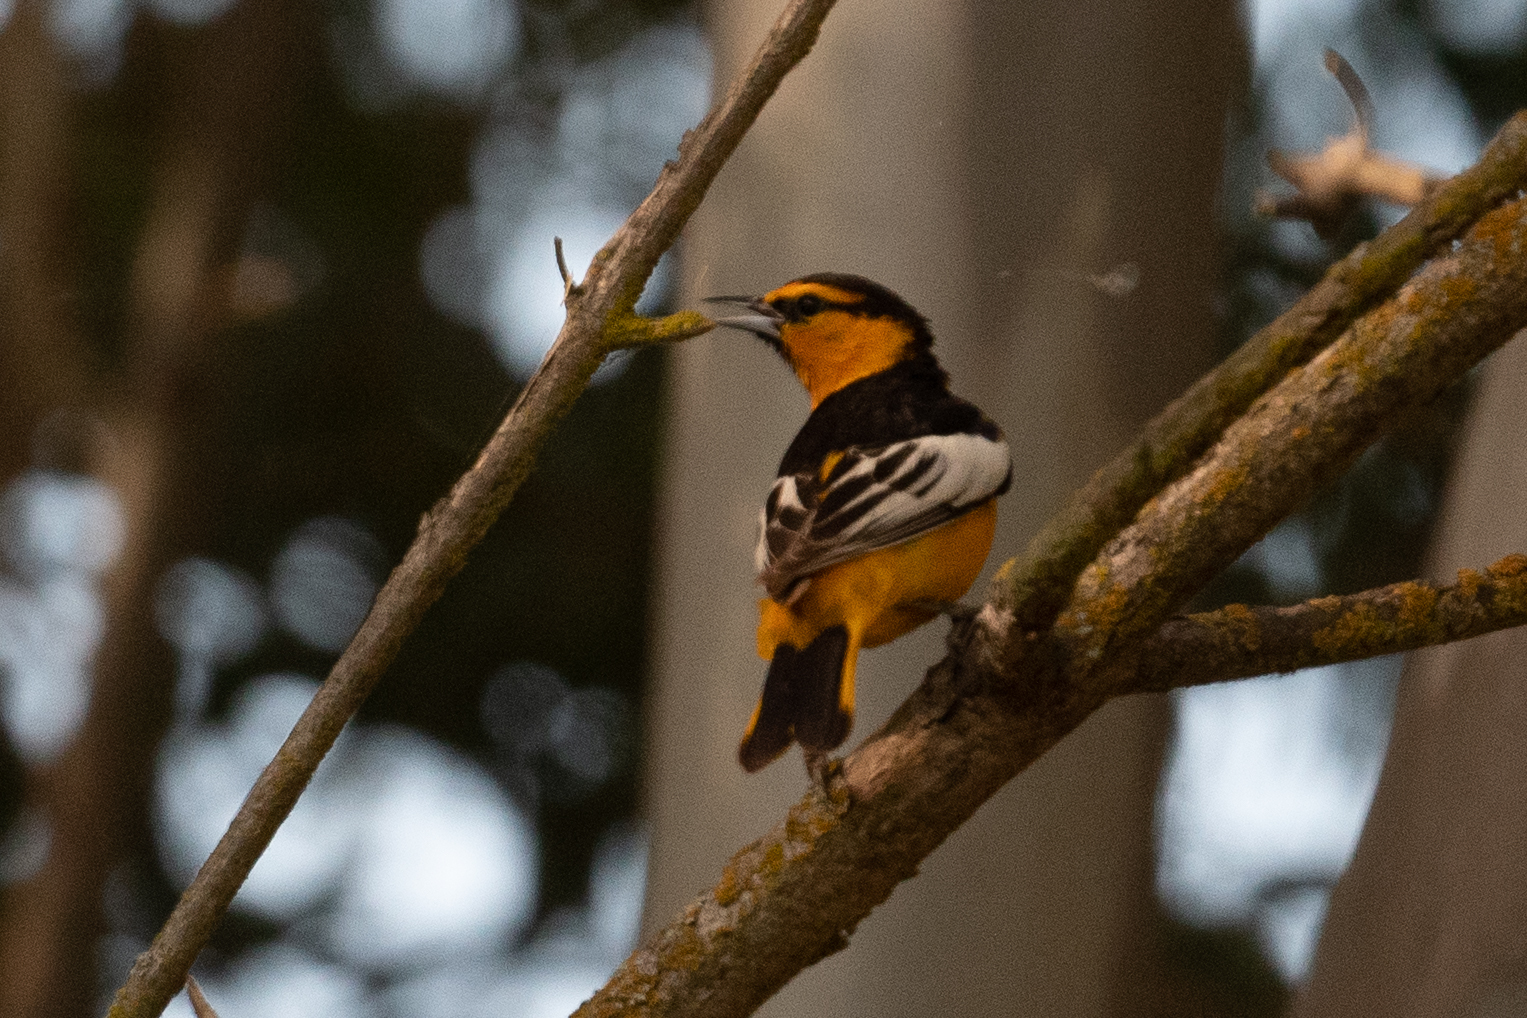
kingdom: Animalia
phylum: Chordata
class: Aves
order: Passeriformes
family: Icteridae
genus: Icterus
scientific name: Icterus bullockii
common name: Bullock's oriole
